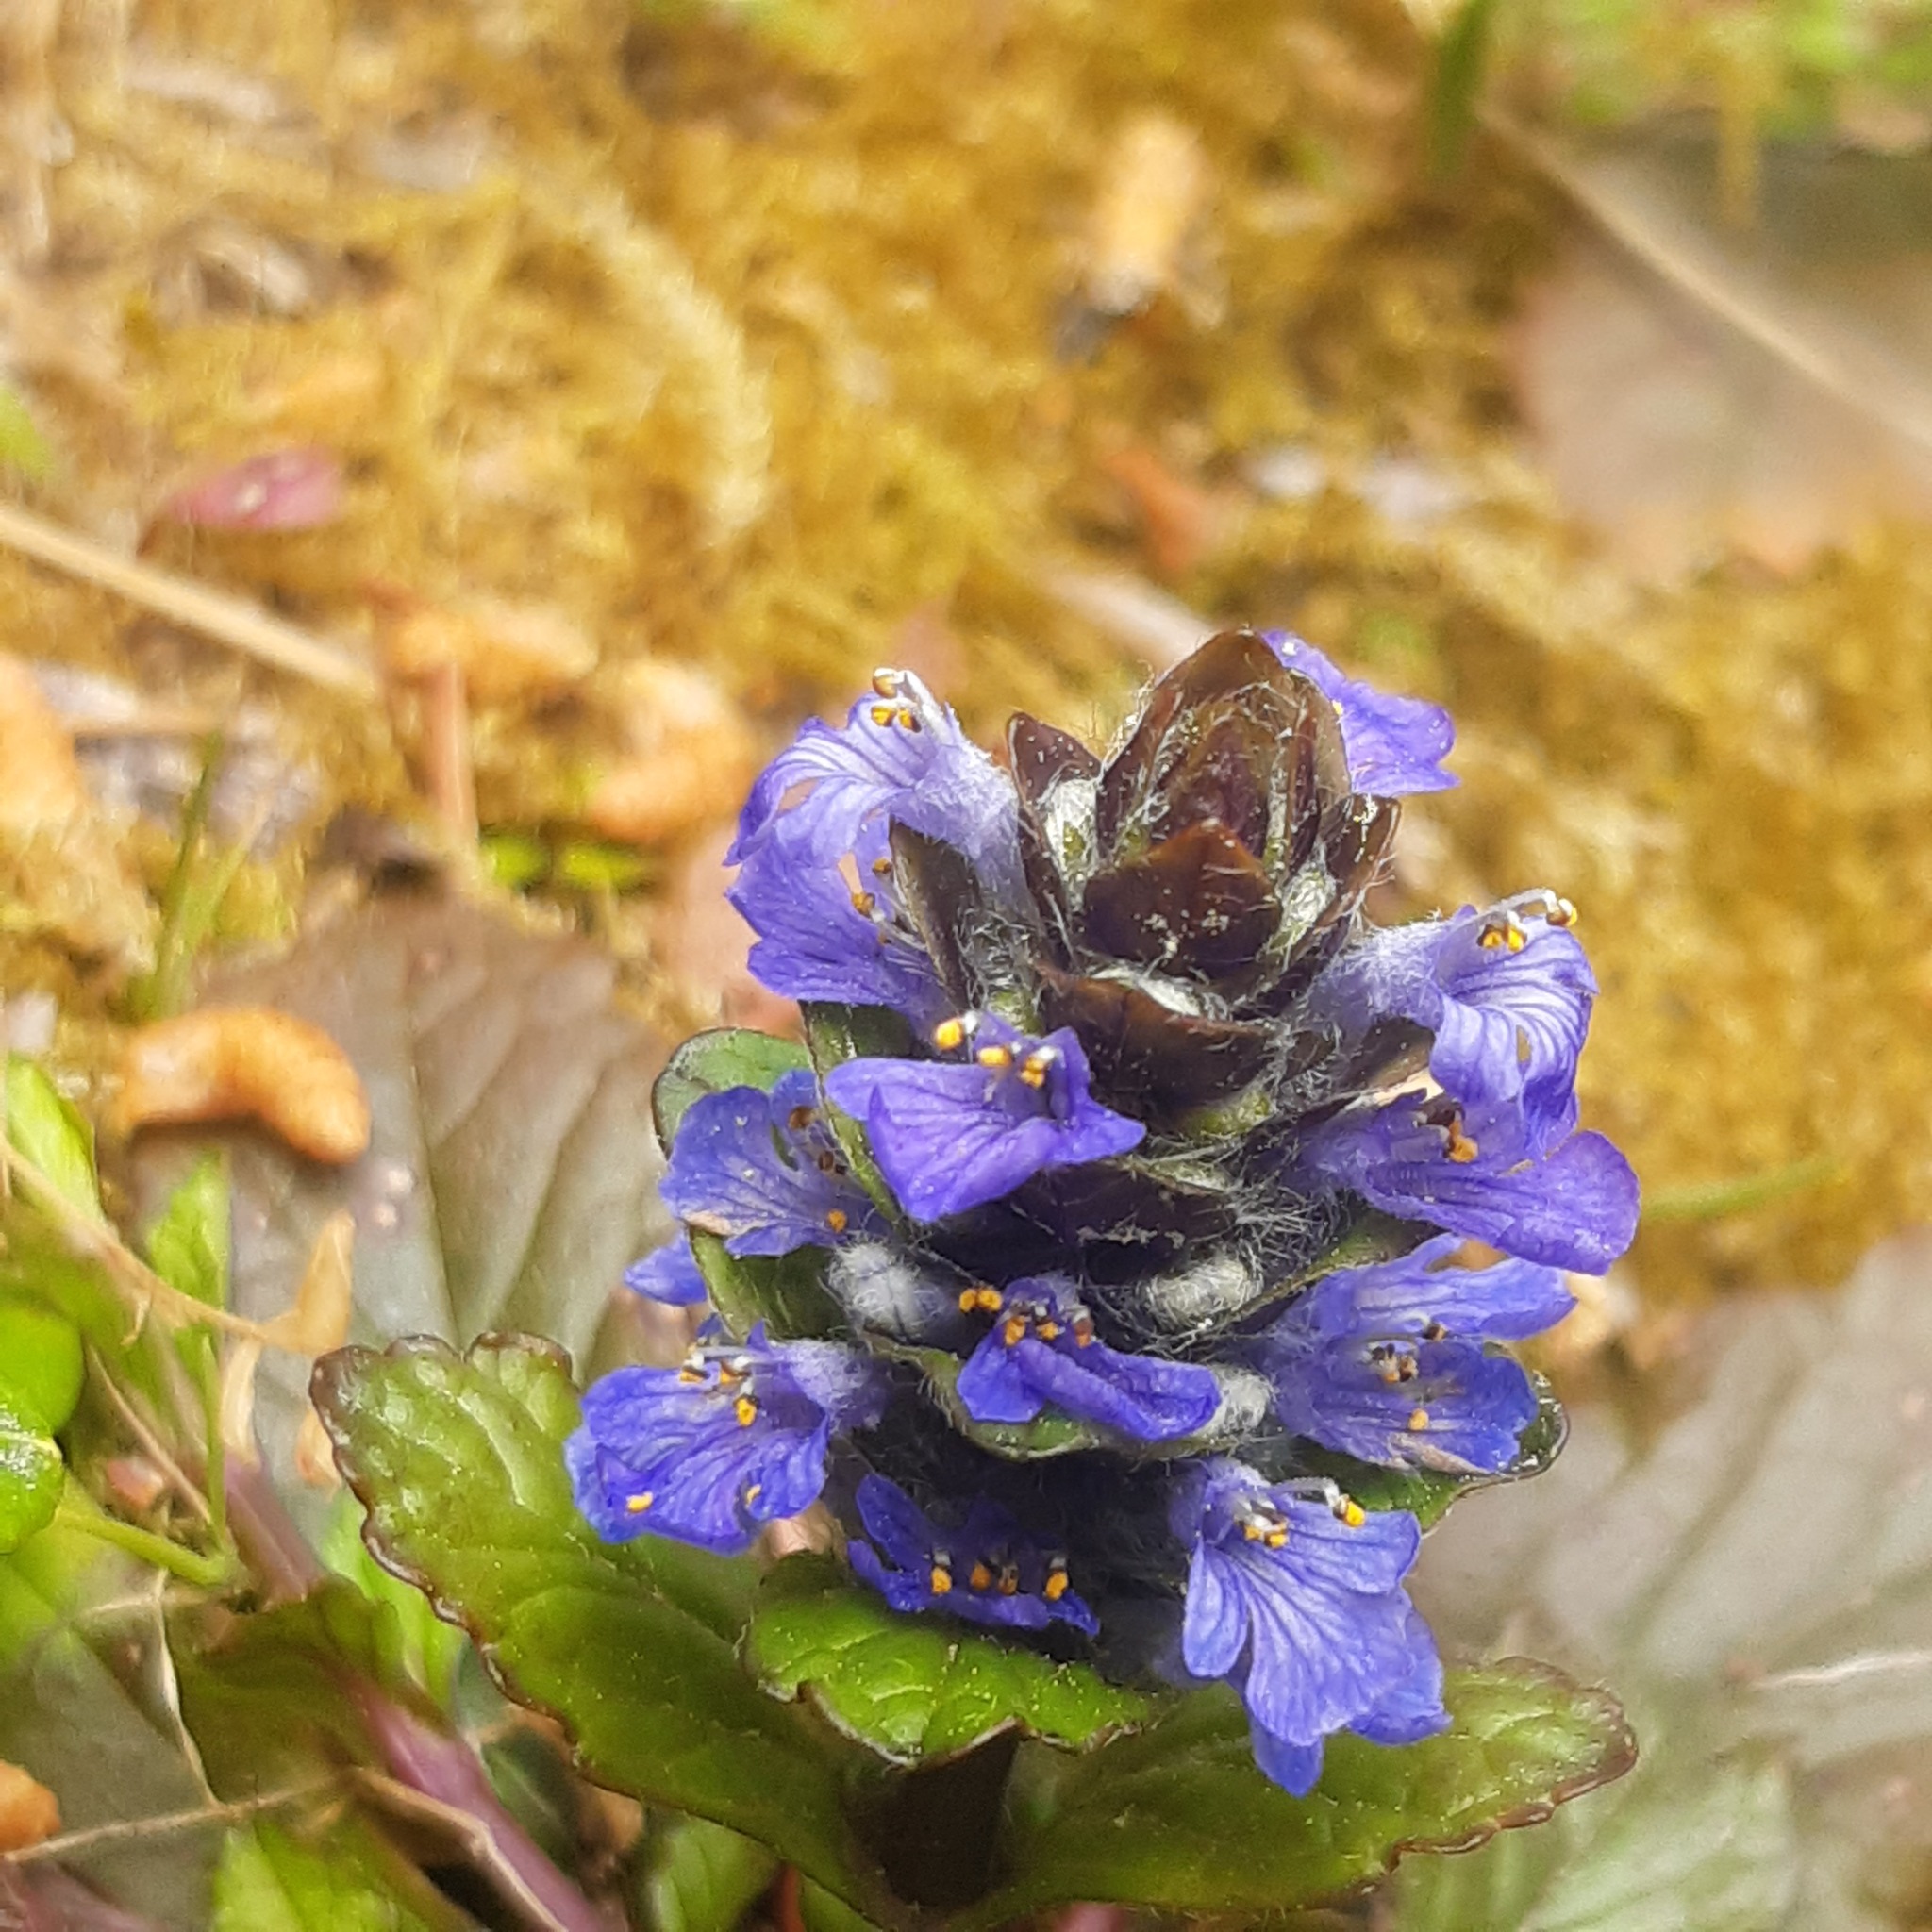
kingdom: Plantae
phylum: Tracheophyta
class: Magnoliopsida
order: Lamiales
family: Lamiaceae
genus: Ajuga
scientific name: Ajuga reptans
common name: Bugle
